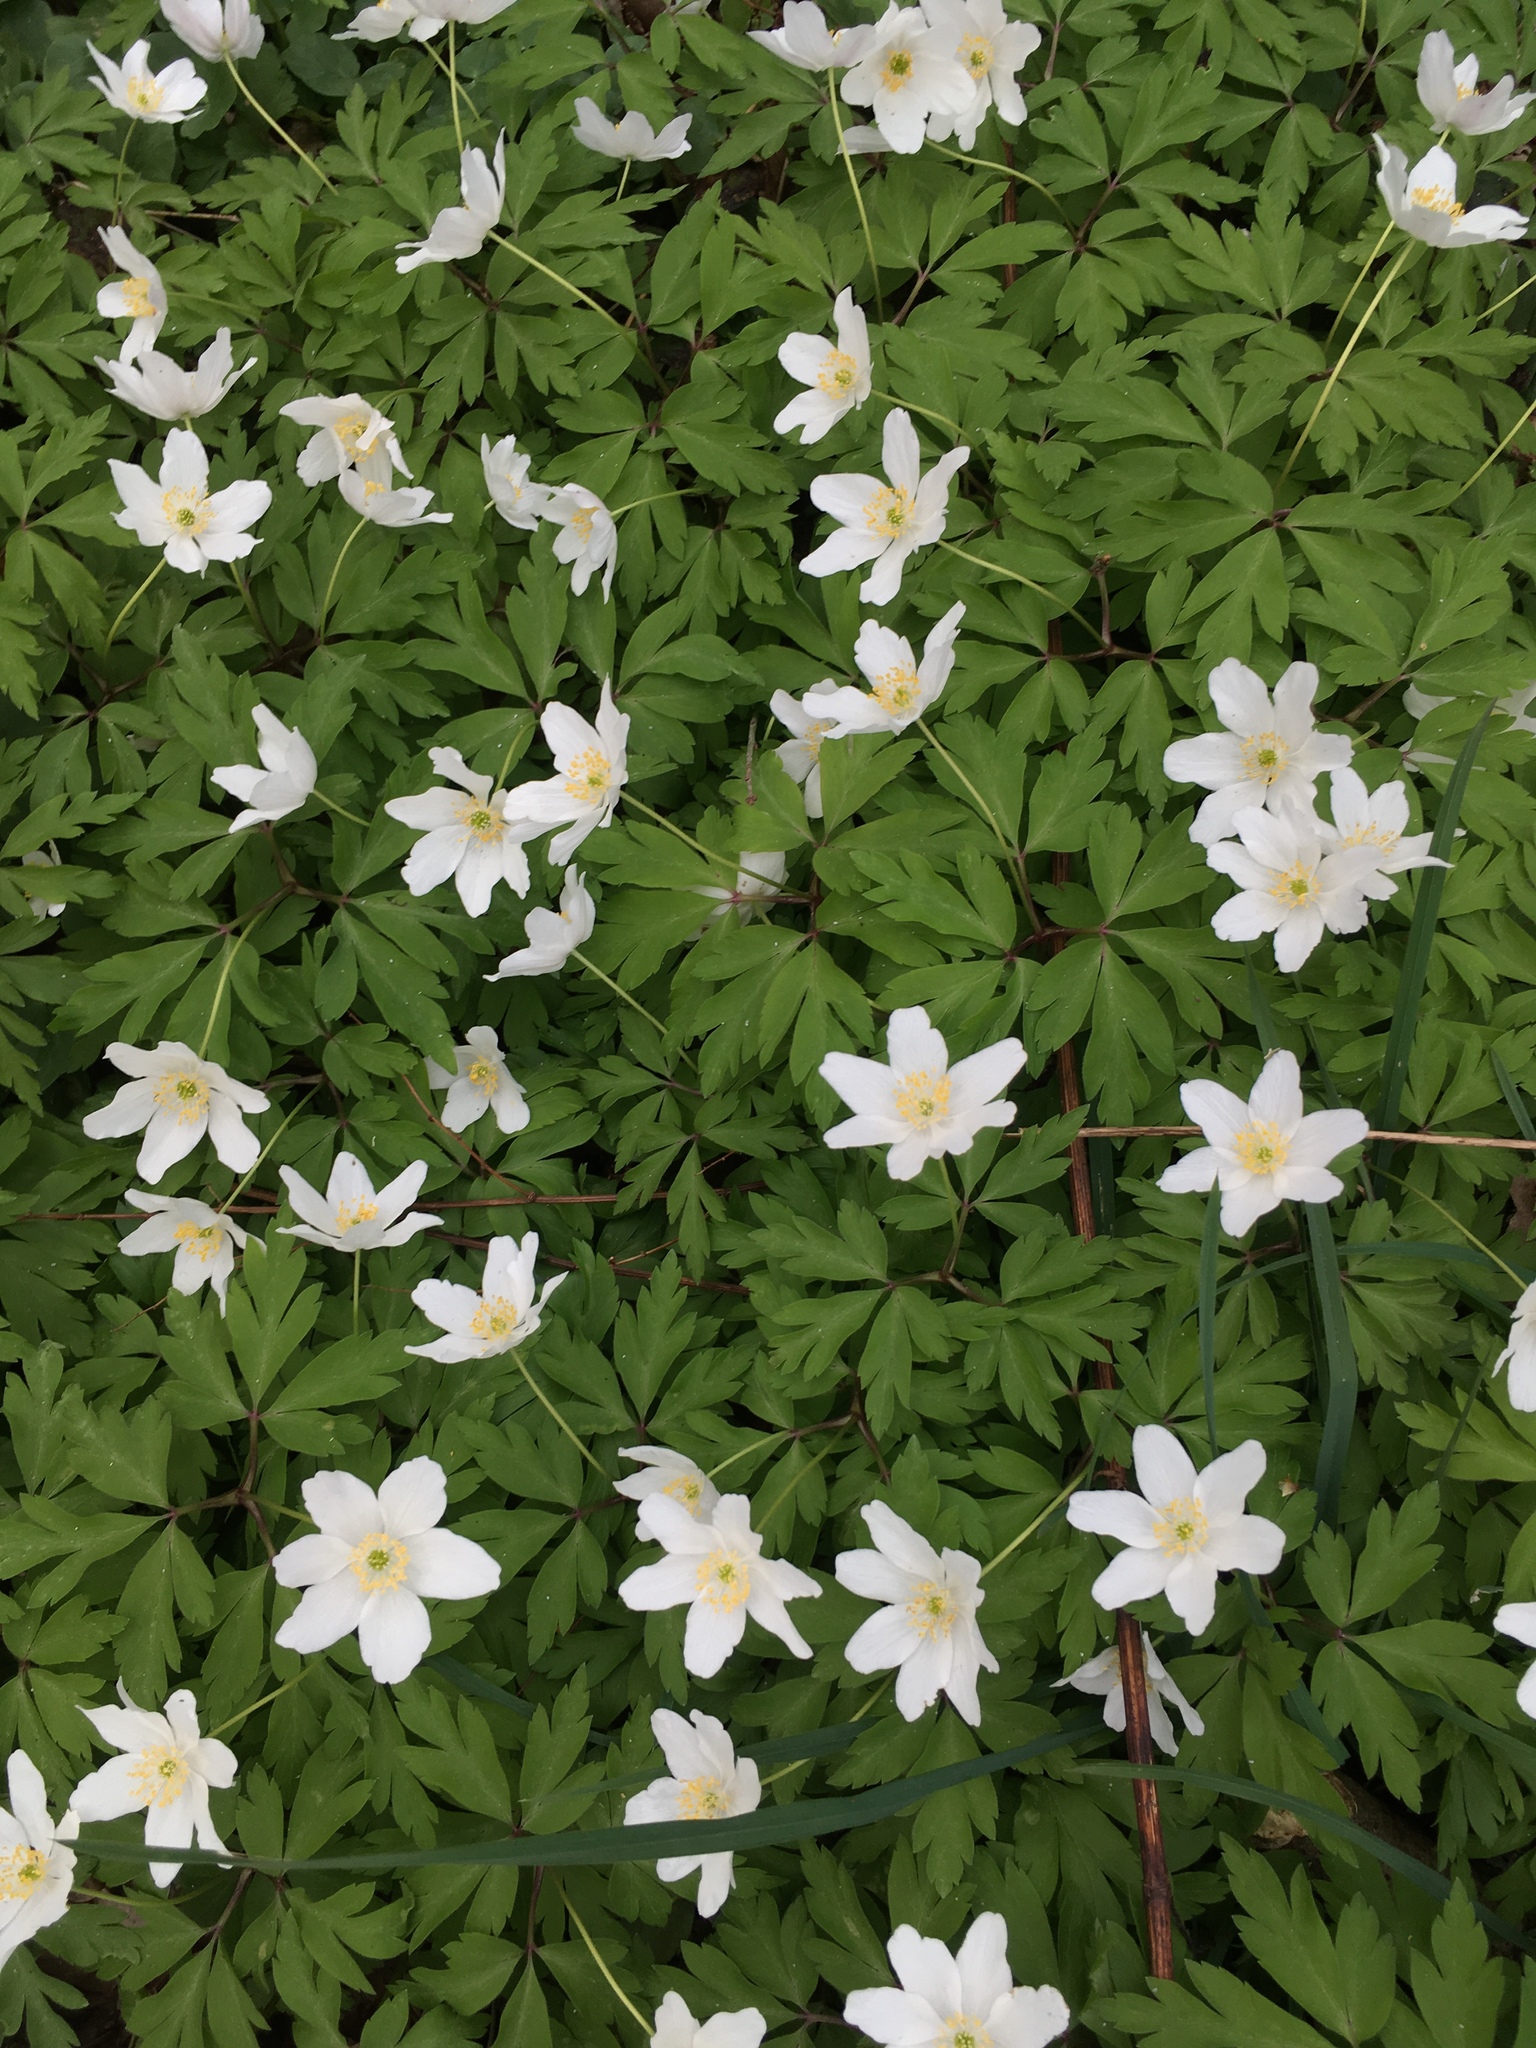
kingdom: Plantae
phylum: Tracheophyta
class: Magnoliopsida
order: Ranunculales
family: Ranunculaceae
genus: Anemone
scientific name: Anemone nemorosa
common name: Wood anemone
